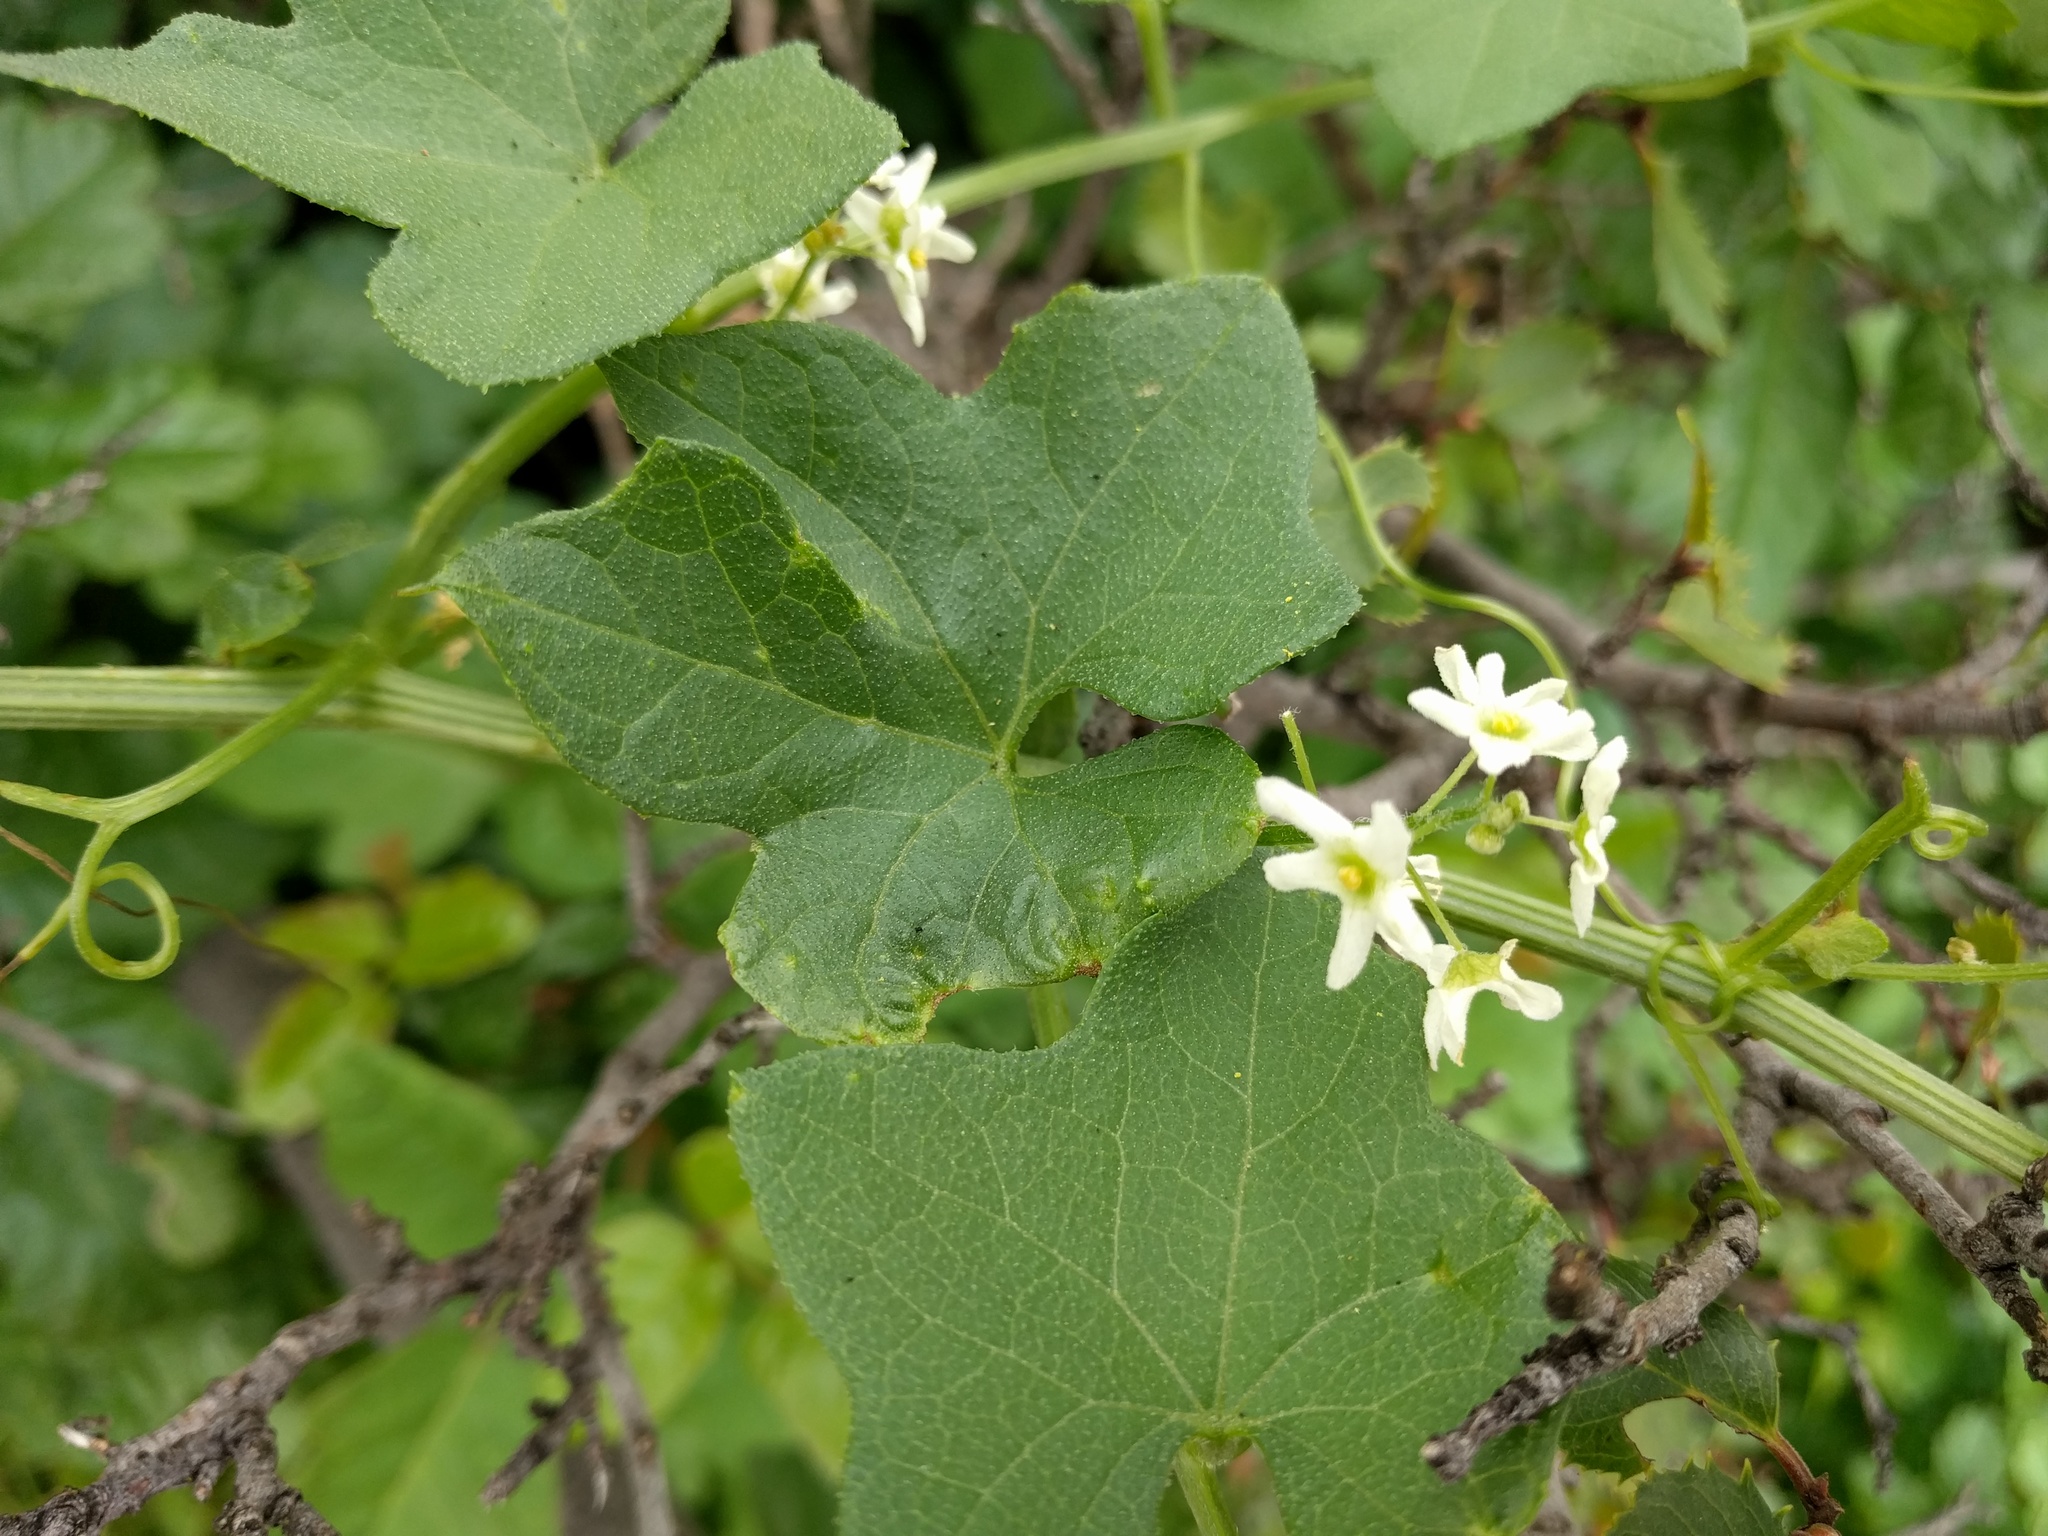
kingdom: Plantae
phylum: Tracheophyta
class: Magnoliopsida
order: Cucurbitales
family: Cucurbitaceae
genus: Marah
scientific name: Marah fabacea
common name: California manroot
